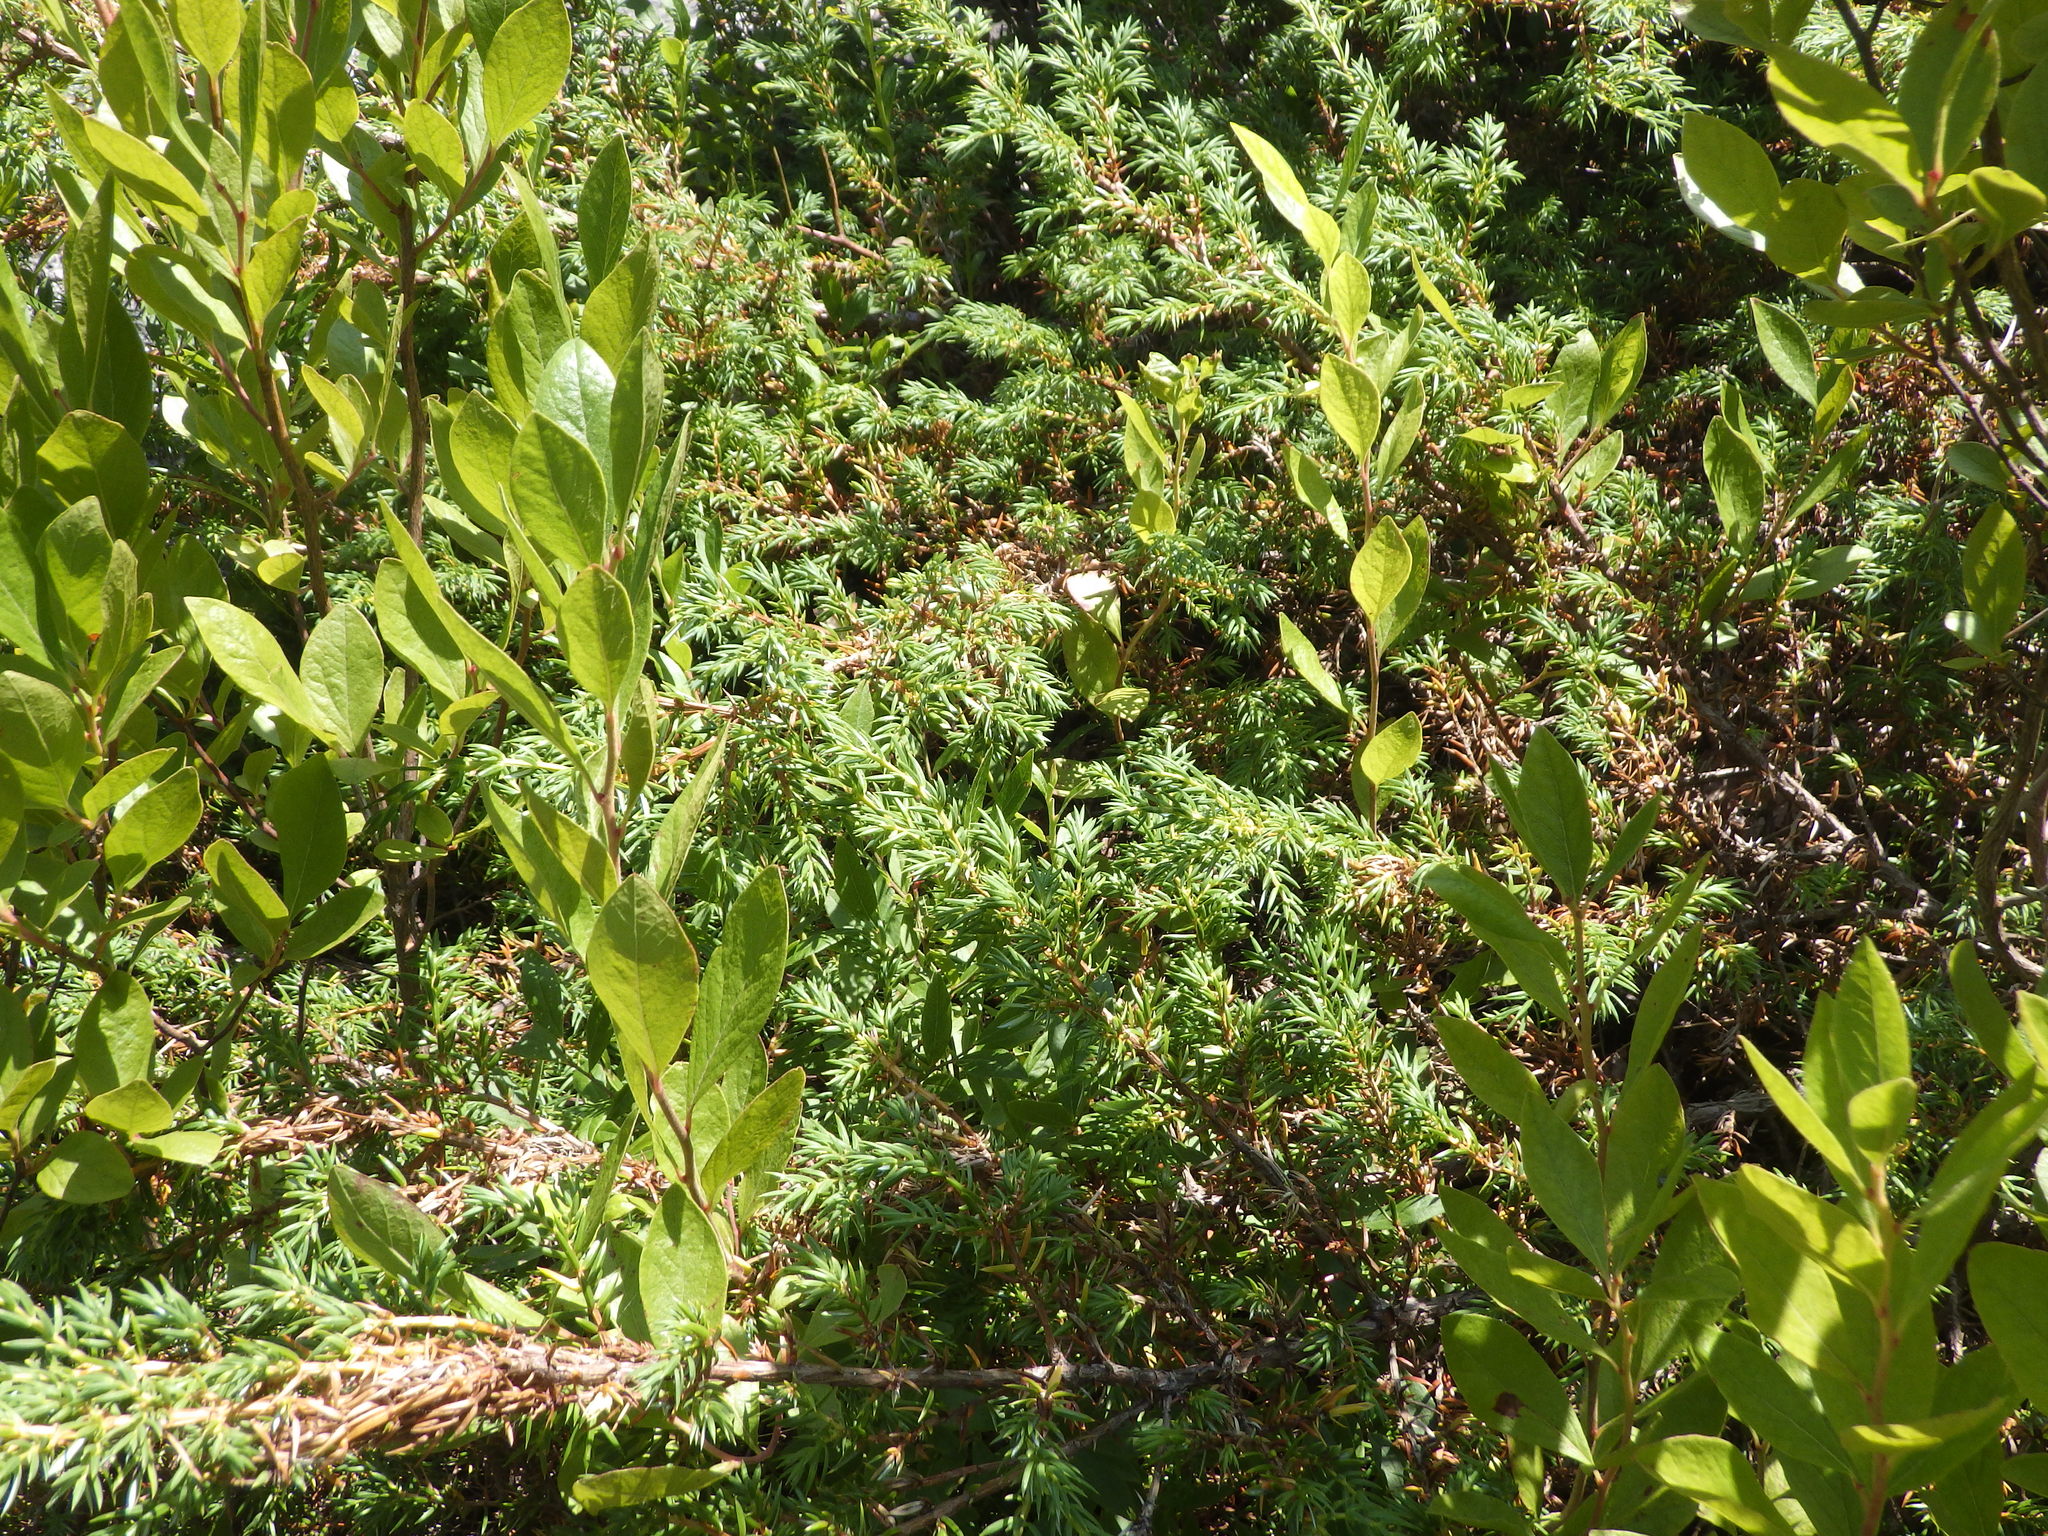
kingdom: Plantae
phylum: Tracheophyta
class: Pinopsida
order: Pinales
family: Cupressaceae
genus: Juniperus
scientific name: Juniperus communis
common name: Common juniper
